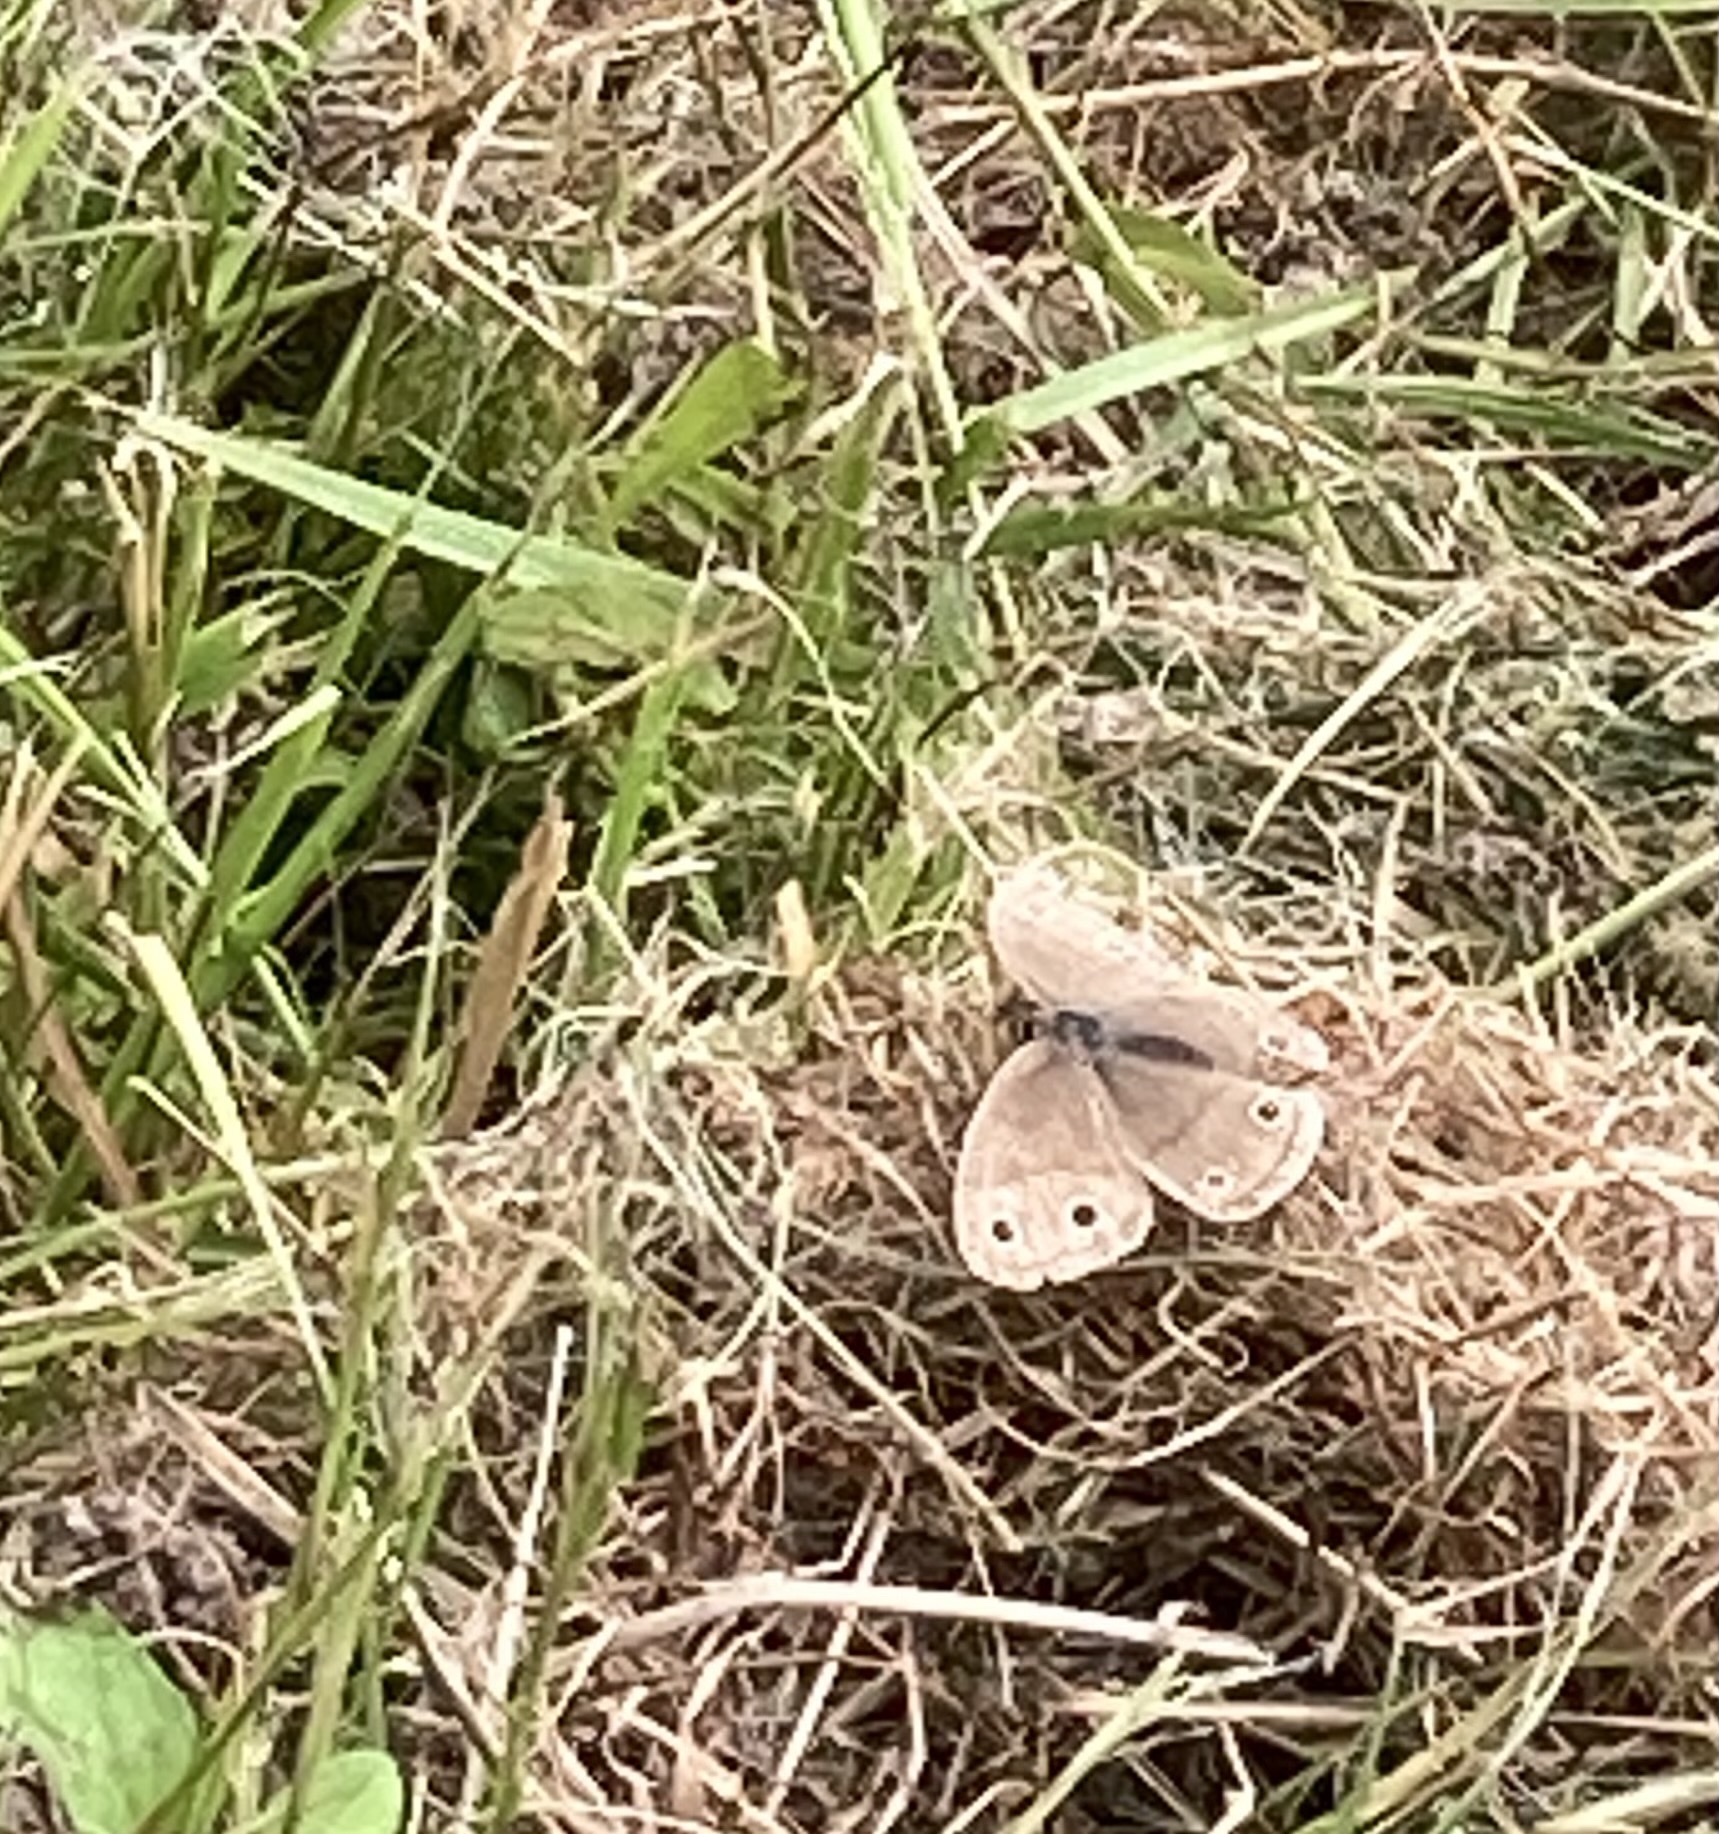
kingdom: Animalia
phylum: Arthropoda
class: Insecta
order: Lepidoptera
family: Nymphalidae
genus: Euptychia
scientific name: Euptychia cymela
